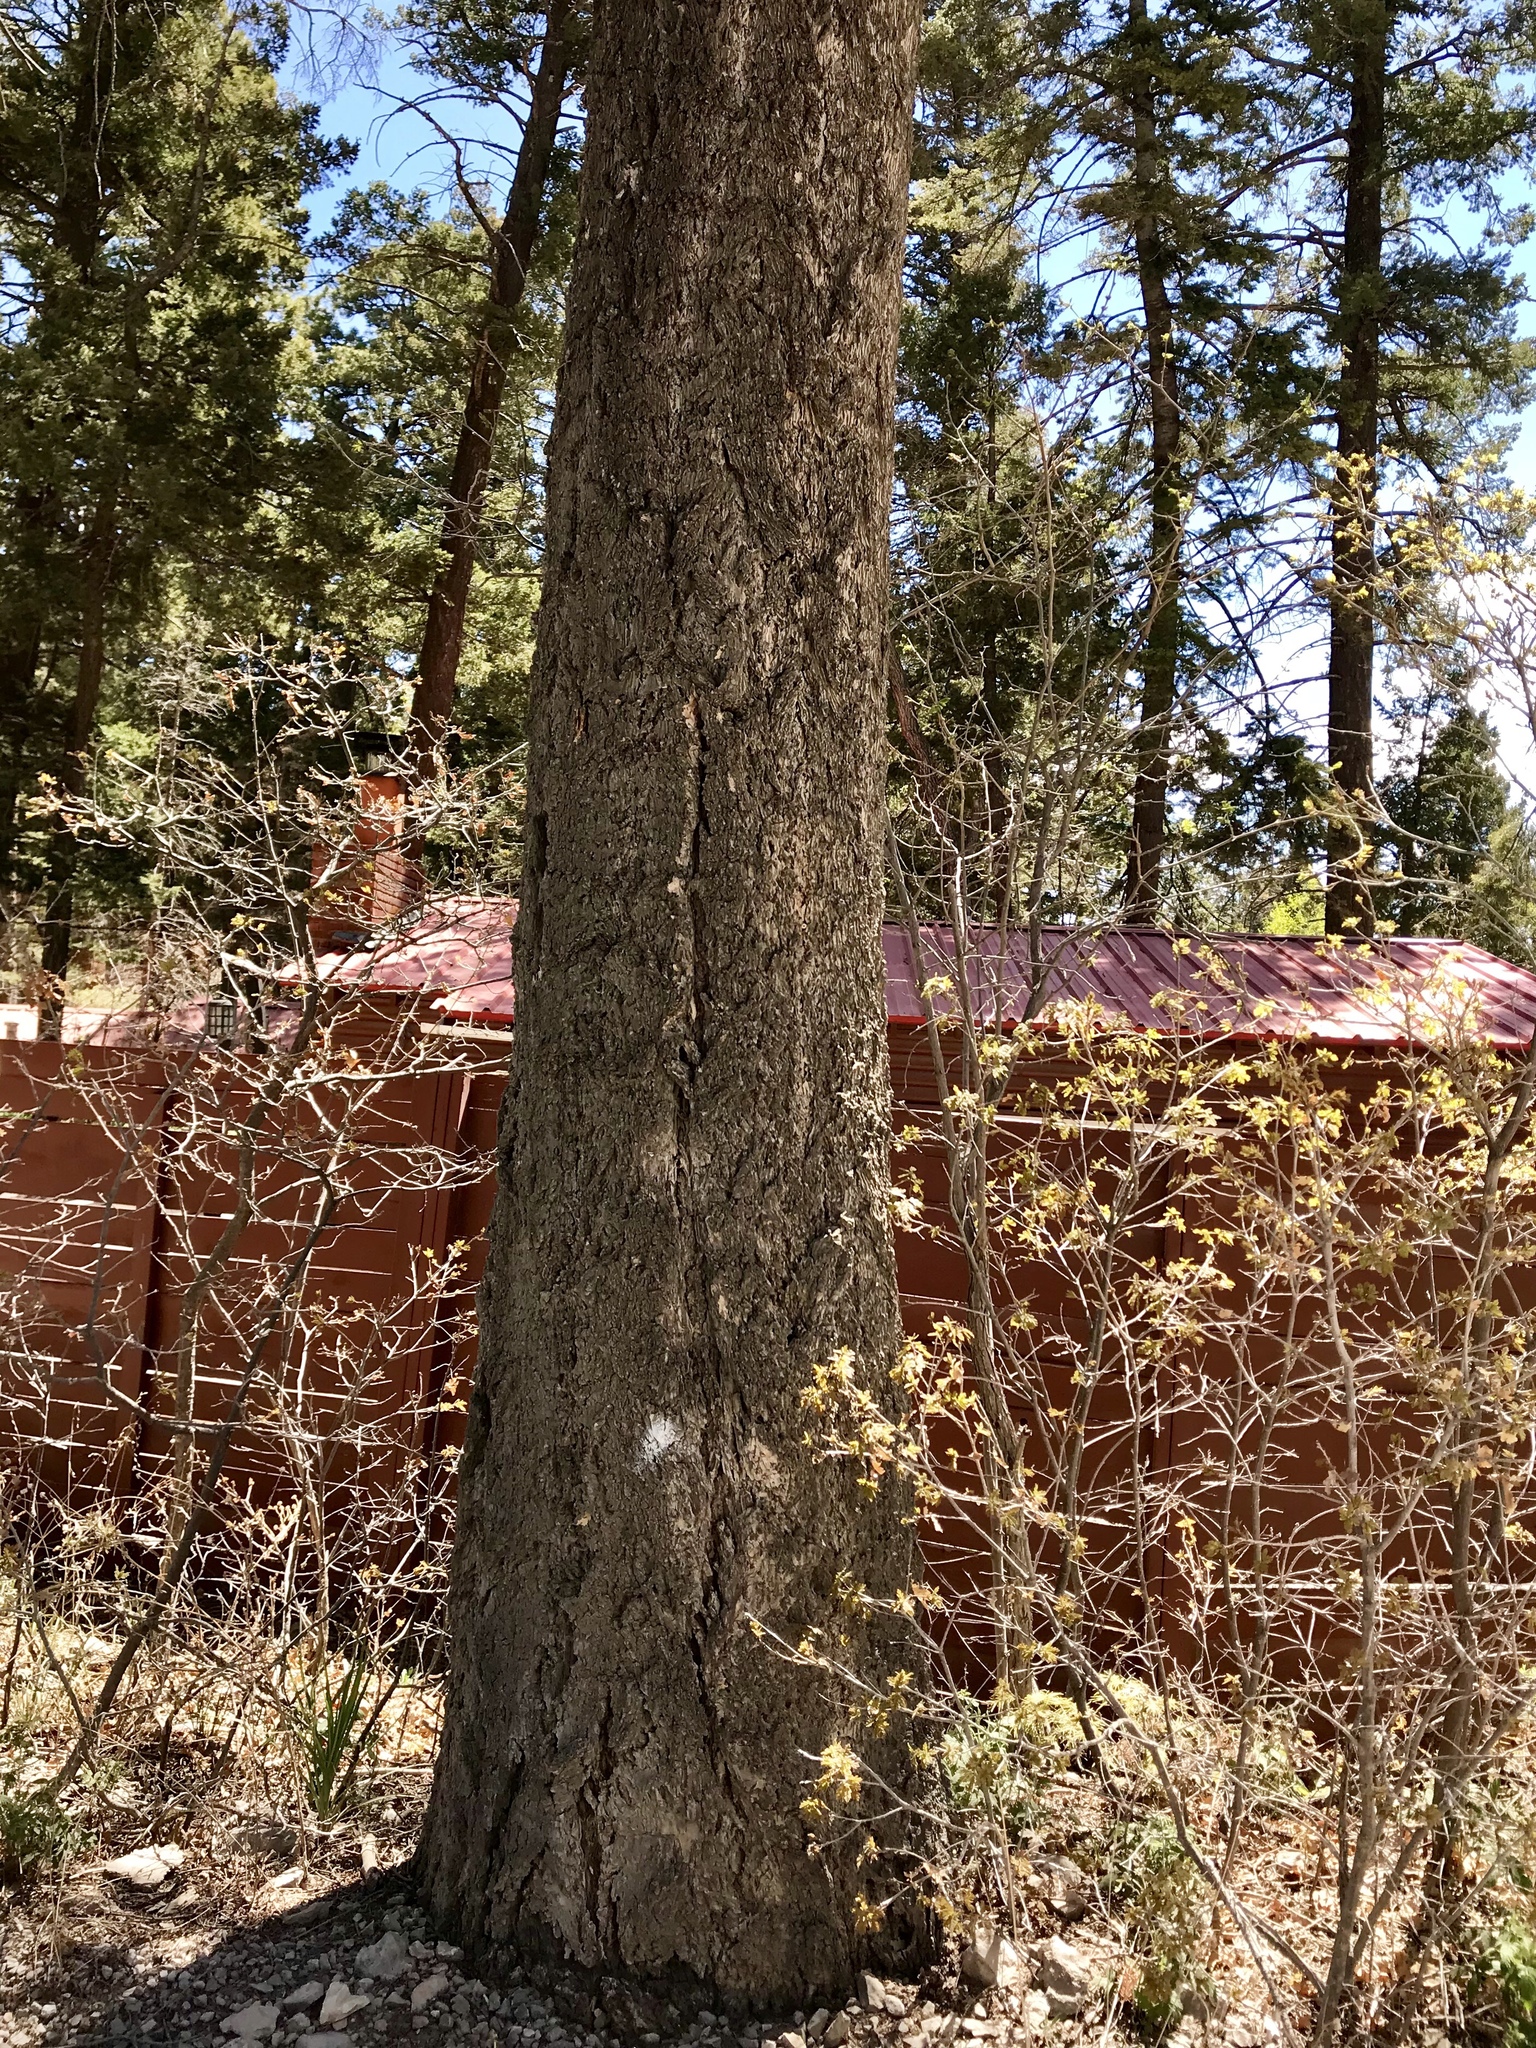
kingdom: Plantae
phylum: Tracheophyta
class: Pinopsida
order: Pinales
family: Pinaceae
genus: Pseudotsuga
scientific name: Pseudotsuga menziesii
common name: Douglas fir
